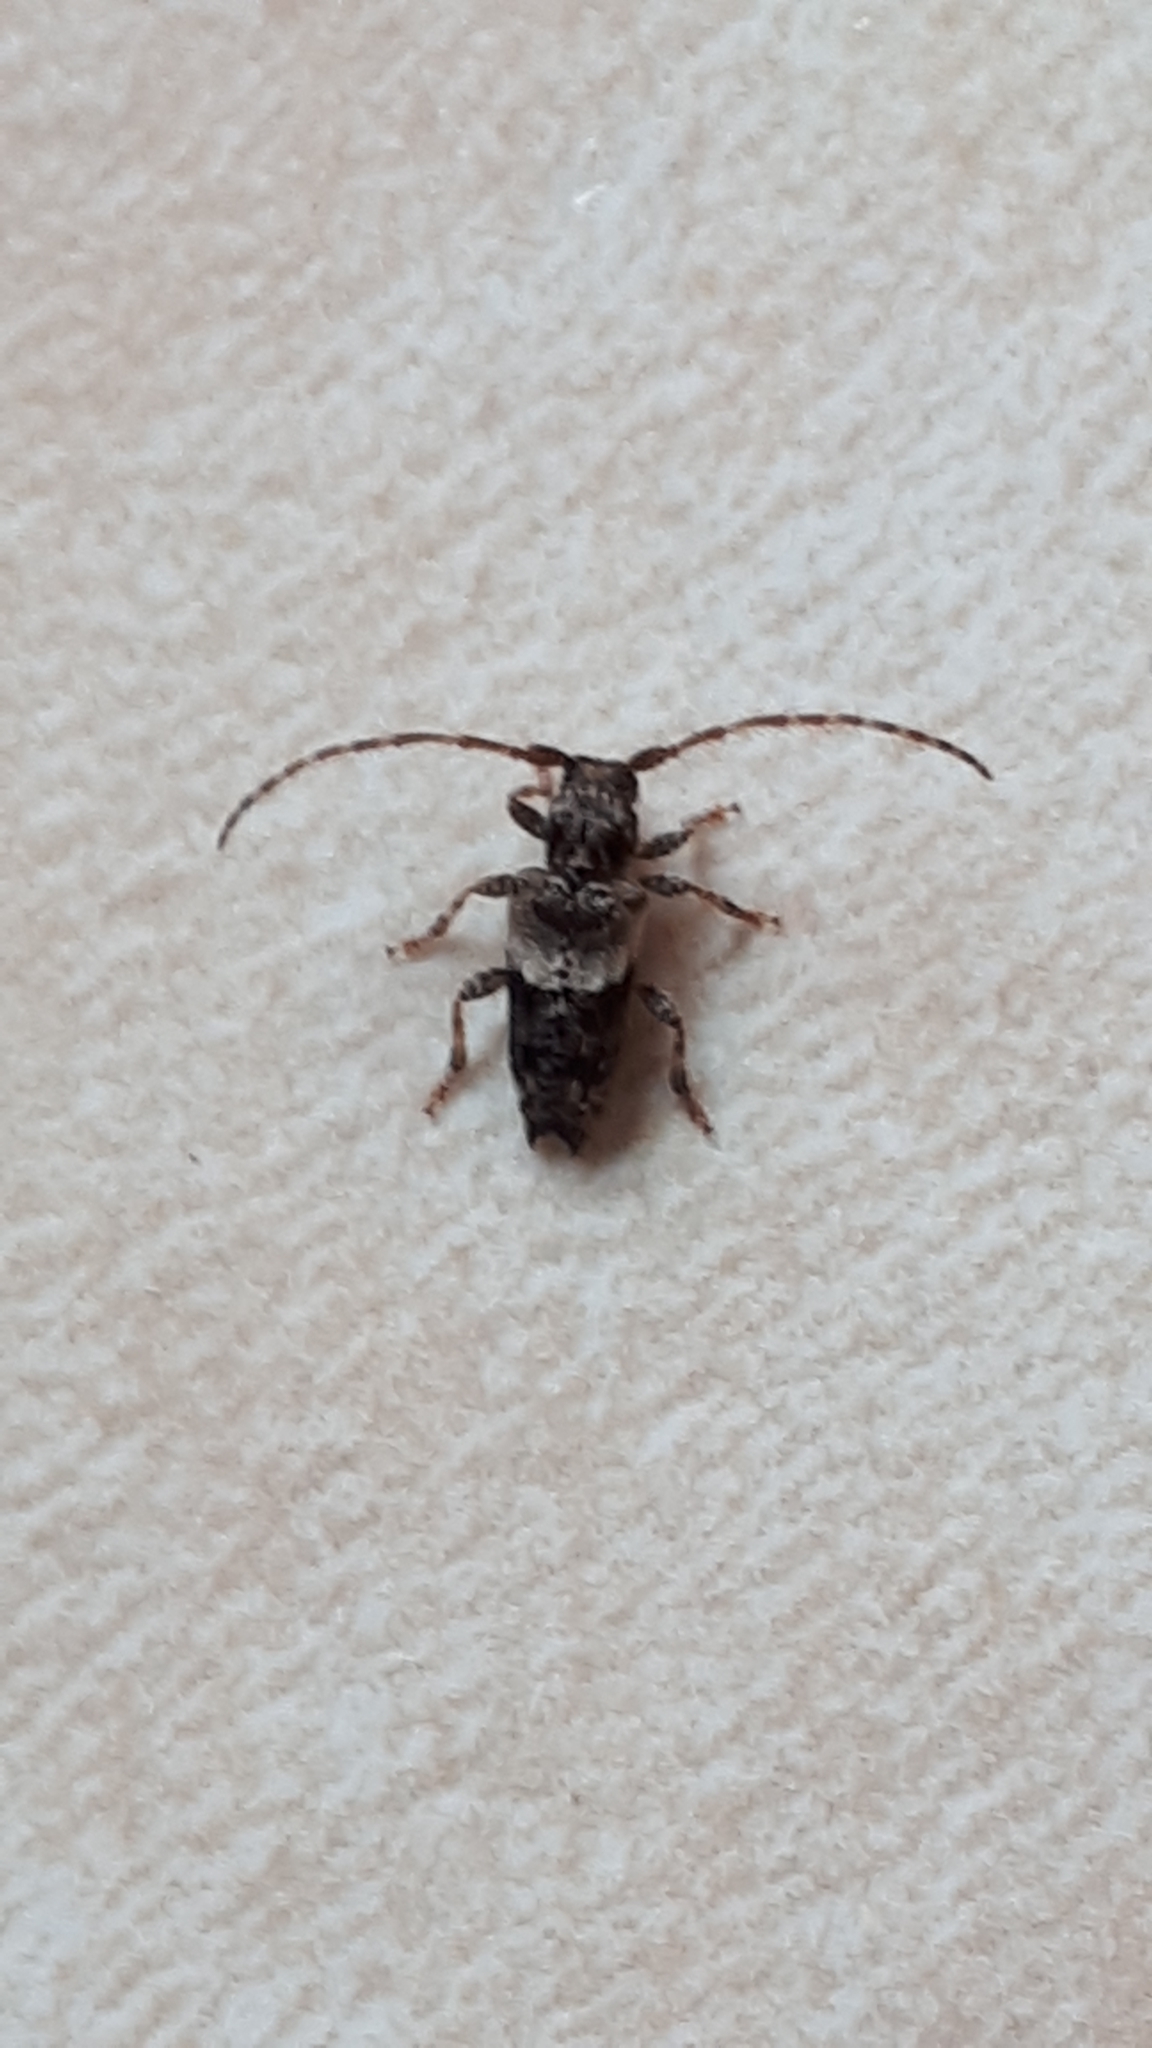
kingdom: Animalia
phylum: Arthropoda
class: Insecta
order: Coleoptera
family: Cerambycidae
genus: Pogonocherus
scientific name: Pogonocherus hispidus
